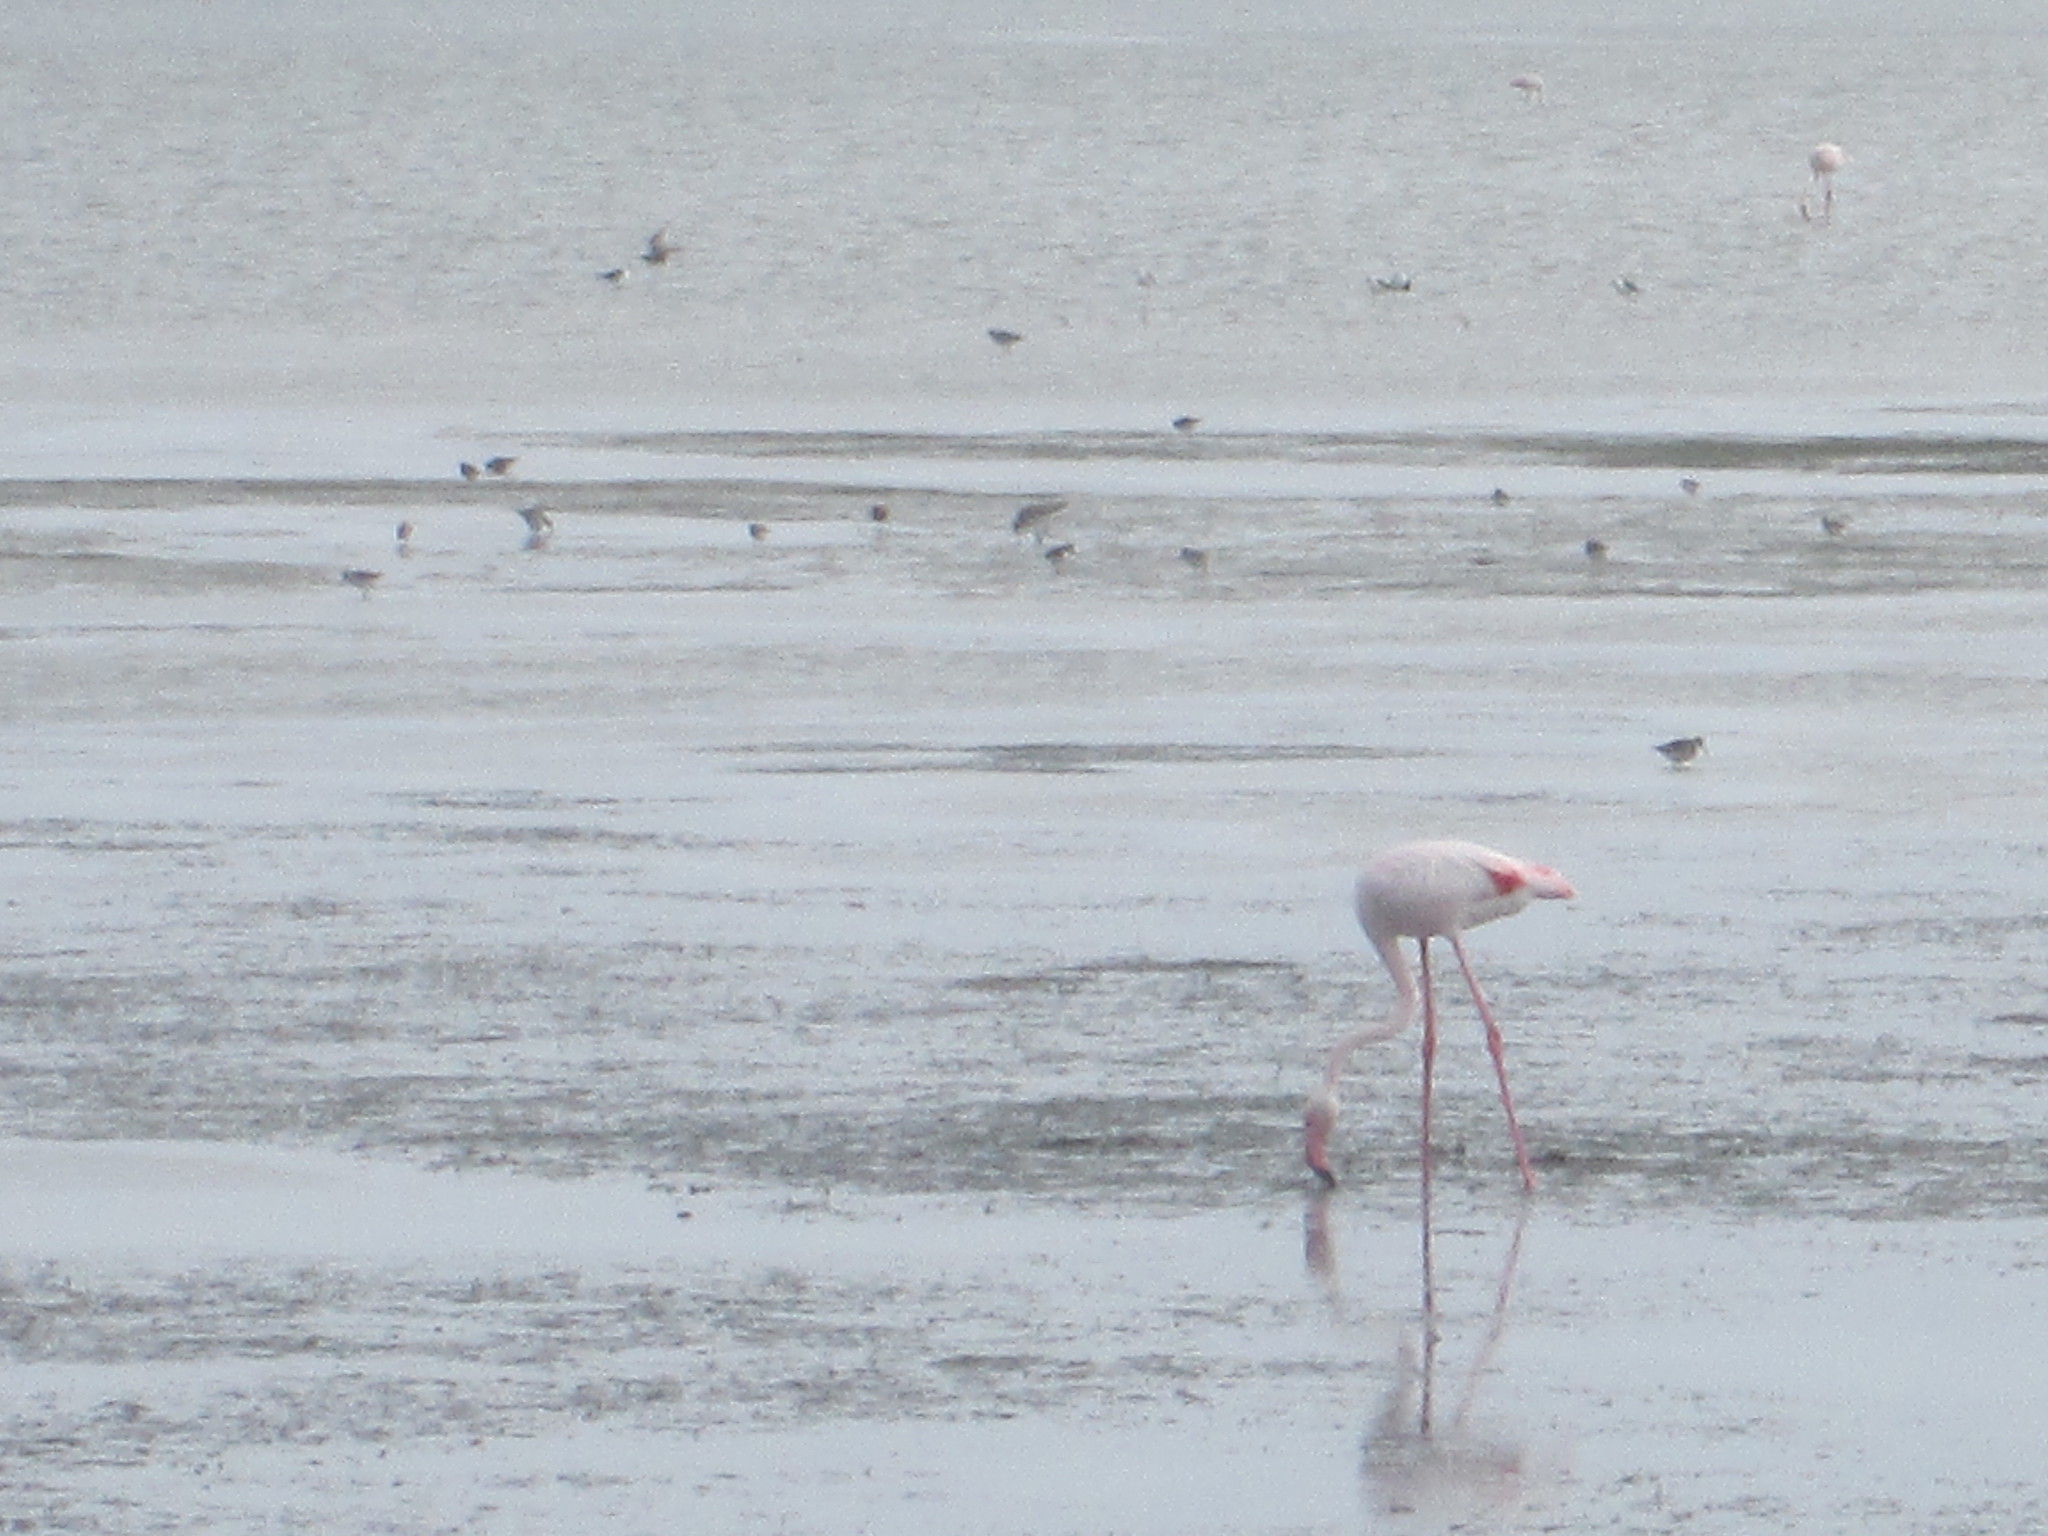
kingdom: Animalia
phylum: Chordata
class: Aves
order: Phoenicopteriformes
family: Phoenicopteridae
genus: Phoenicopterus
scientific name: Phoenicopterus roseus
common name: Greater flamingo
